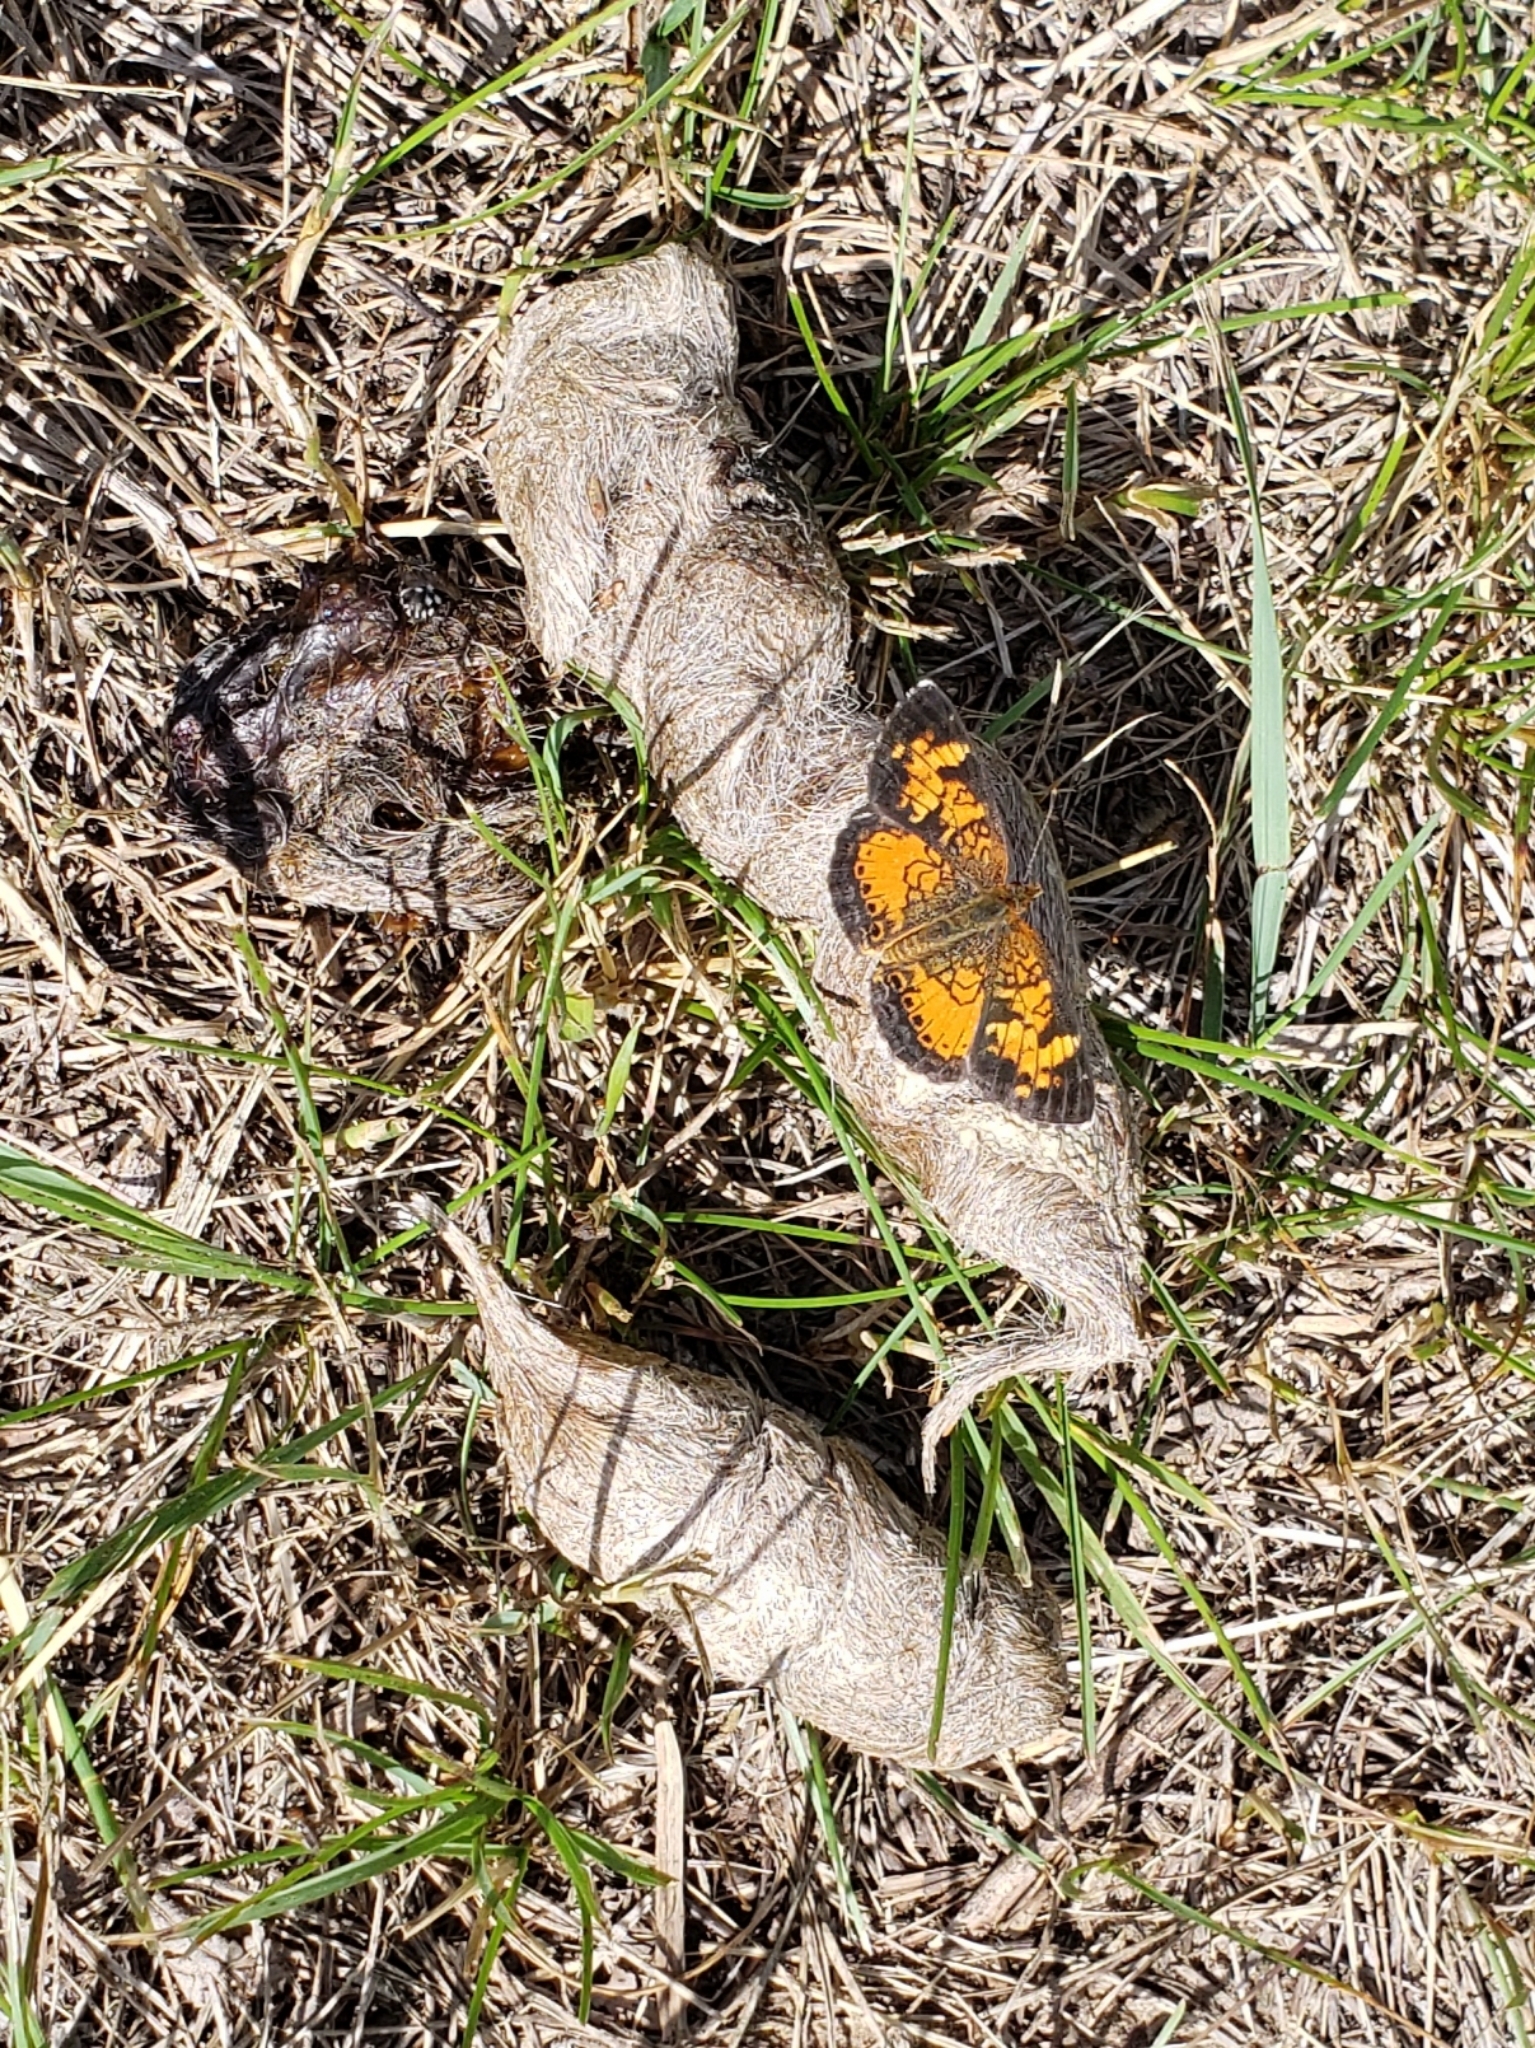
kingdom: Animalia
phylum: Arthropoda
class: Insecta
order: Lepidoptera
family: Nymphalidae
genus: Phyciodes
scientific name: Phyciodes tharos
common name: Pearl crescent
